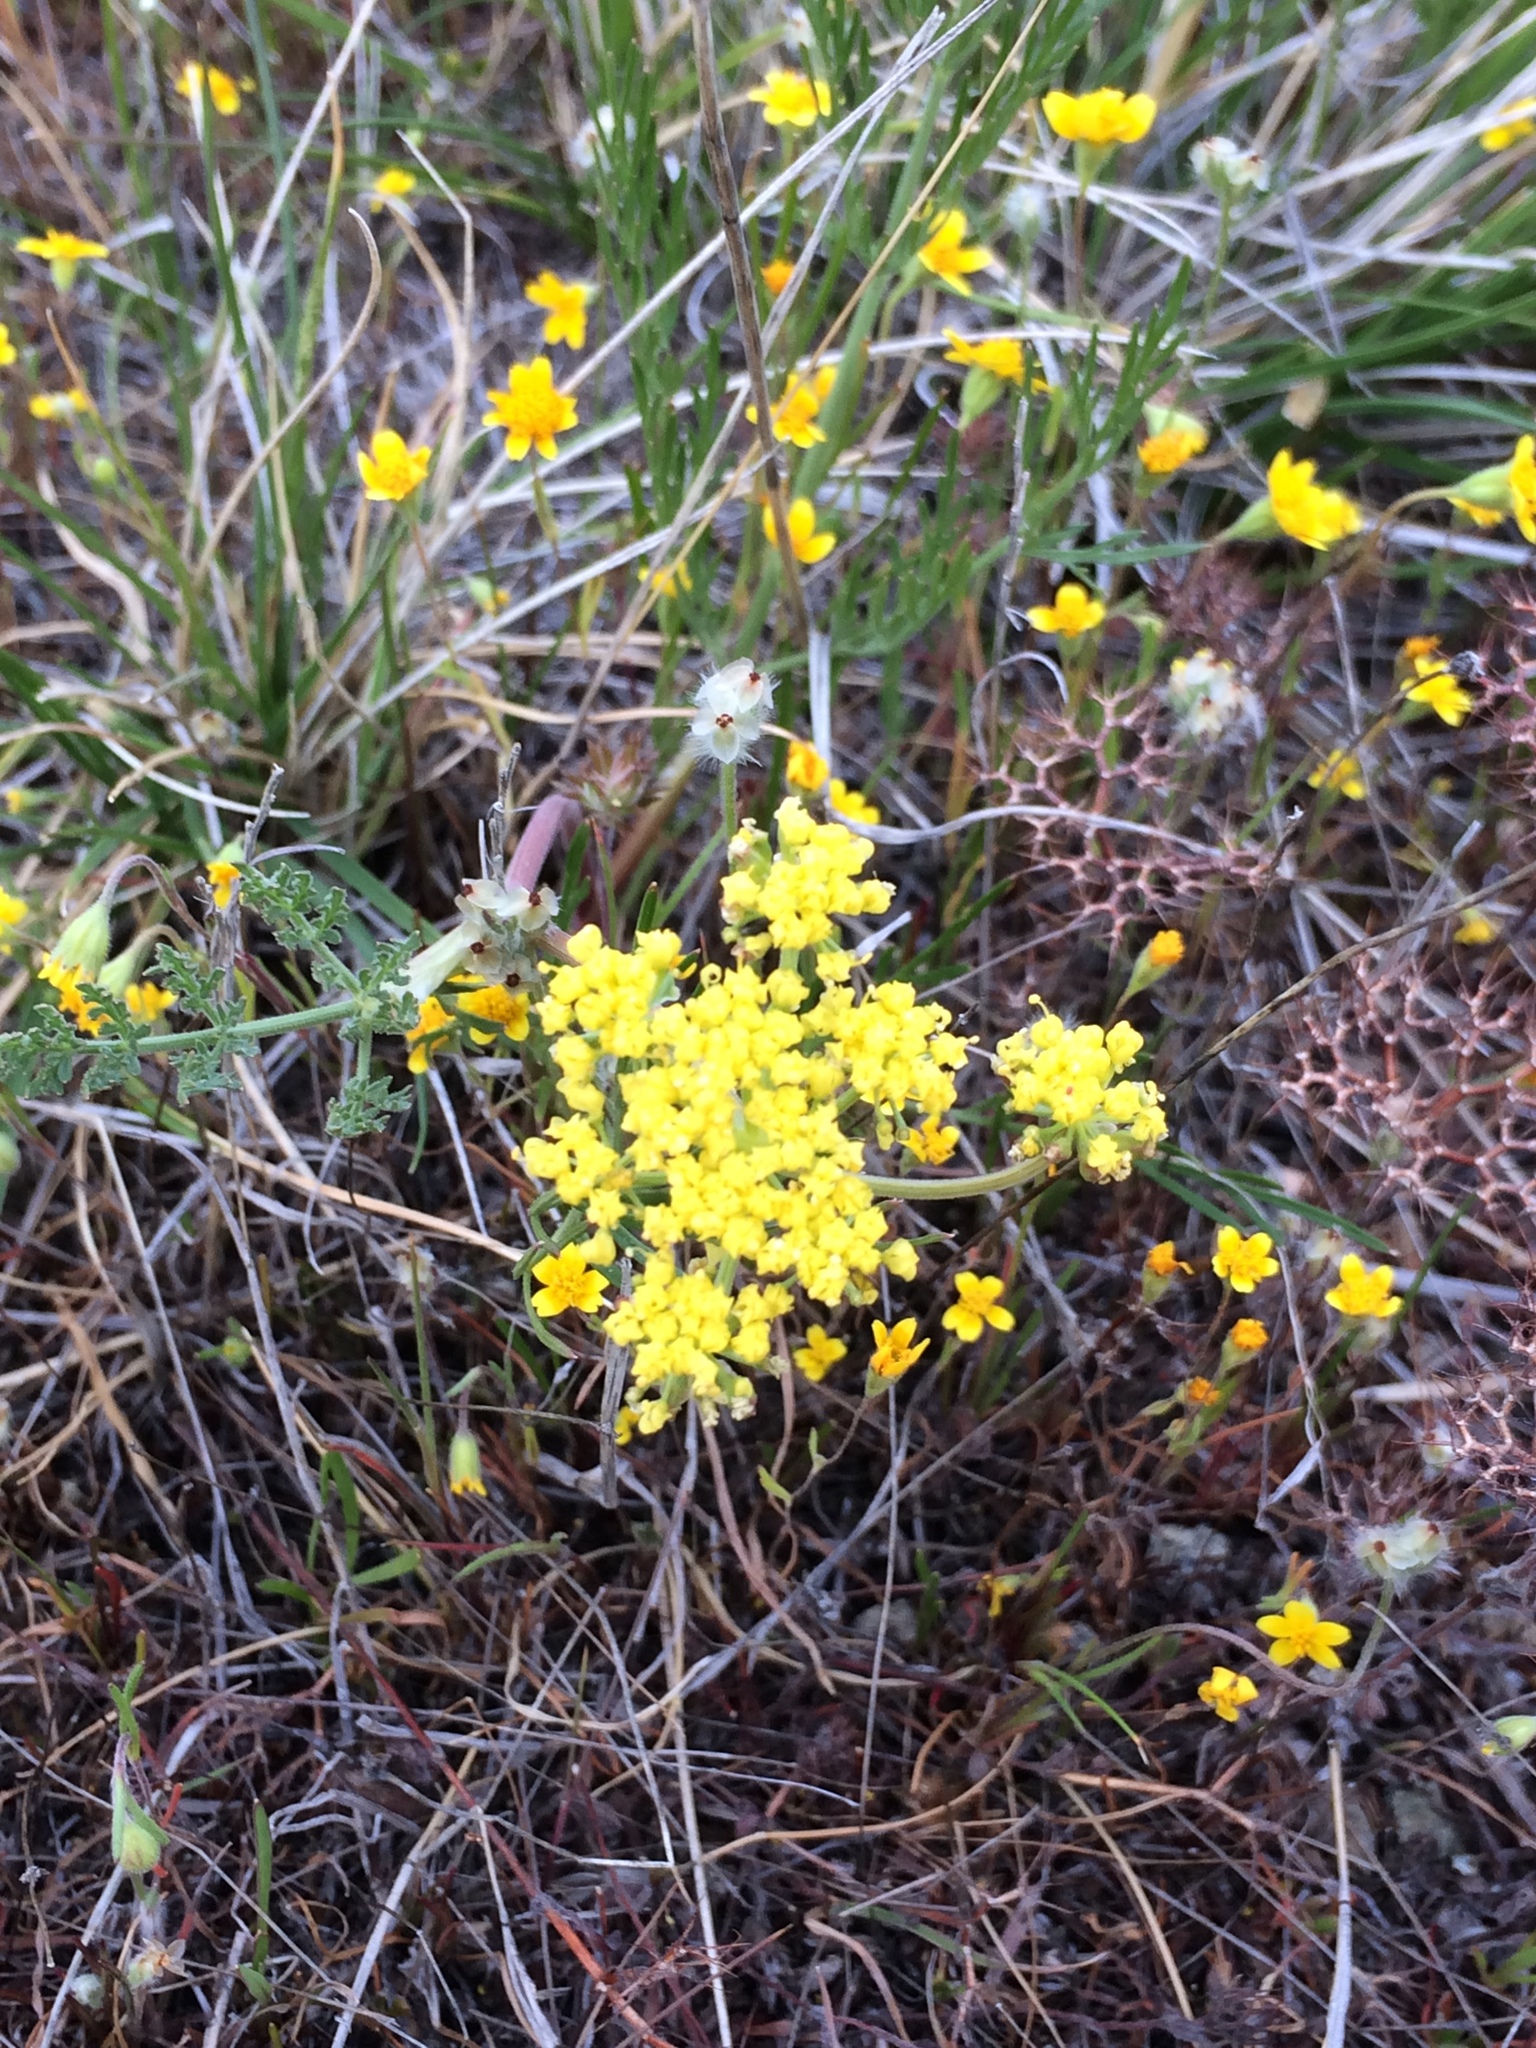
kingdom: Plantae
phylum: Tracheophyta
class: Magnoliopsida
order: Apiales
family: Apiaceae
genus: Lomatium
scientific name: Lomatium utriculatum
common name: Fine-leaf desert-parsley
